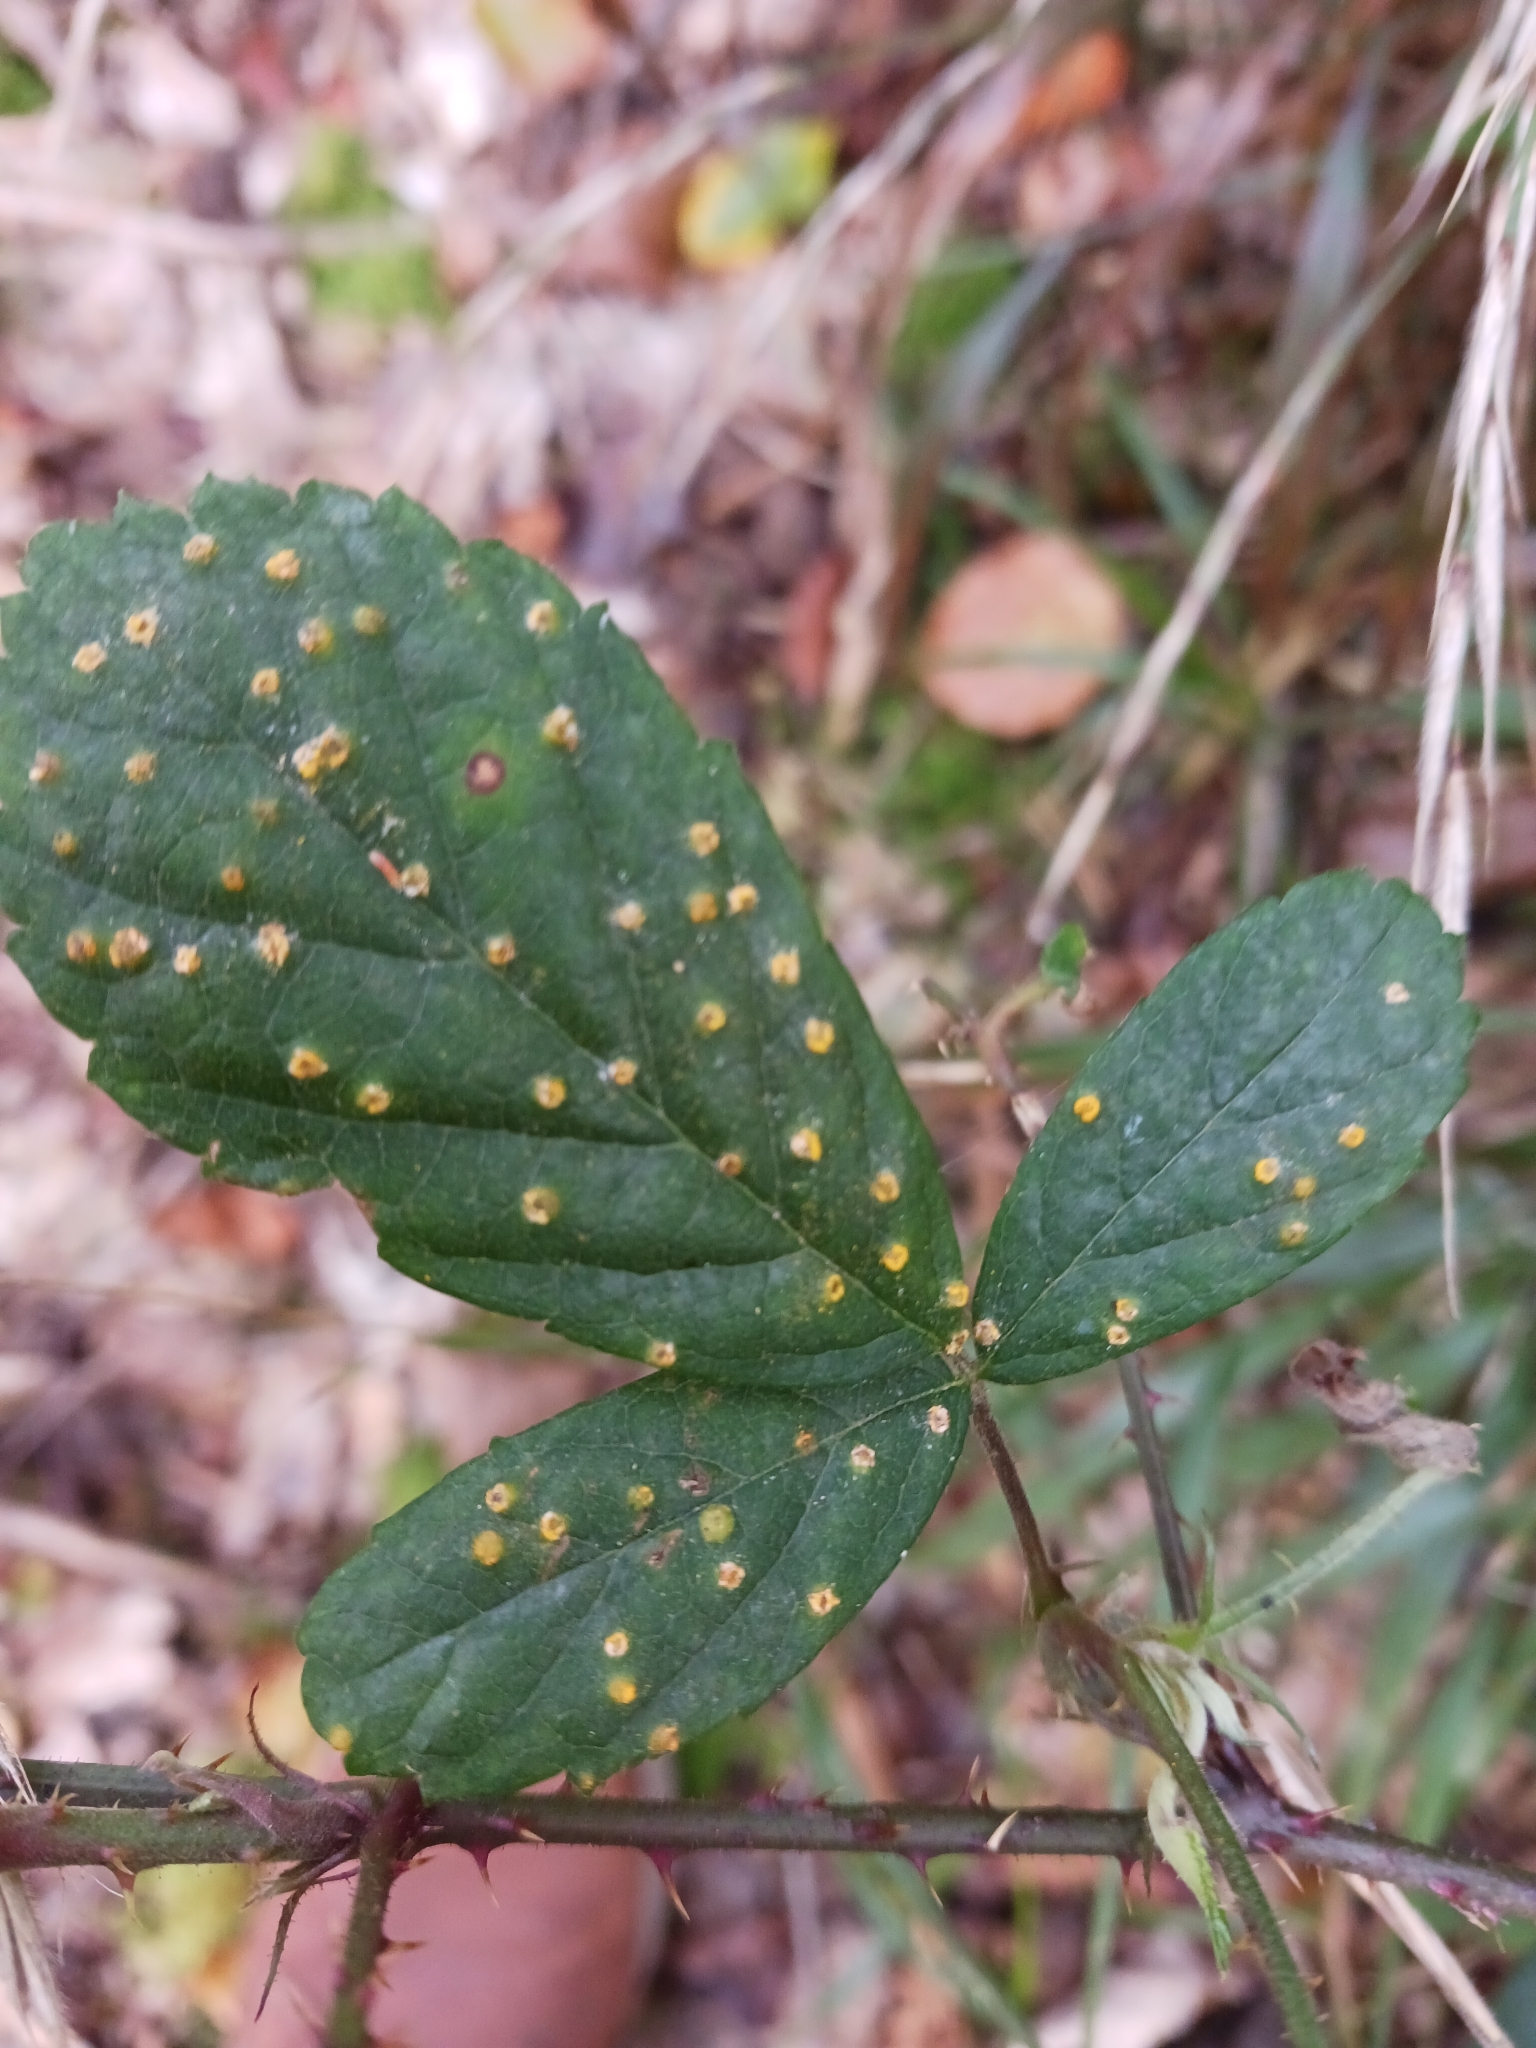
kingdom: Fungi
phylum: Basidiomycota
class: Pucciniomycetes
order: Pucciniales
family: Phragmidiaceae
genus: Kuehneola
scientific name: Kuehneola uredinis
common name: Bramble stem rust
